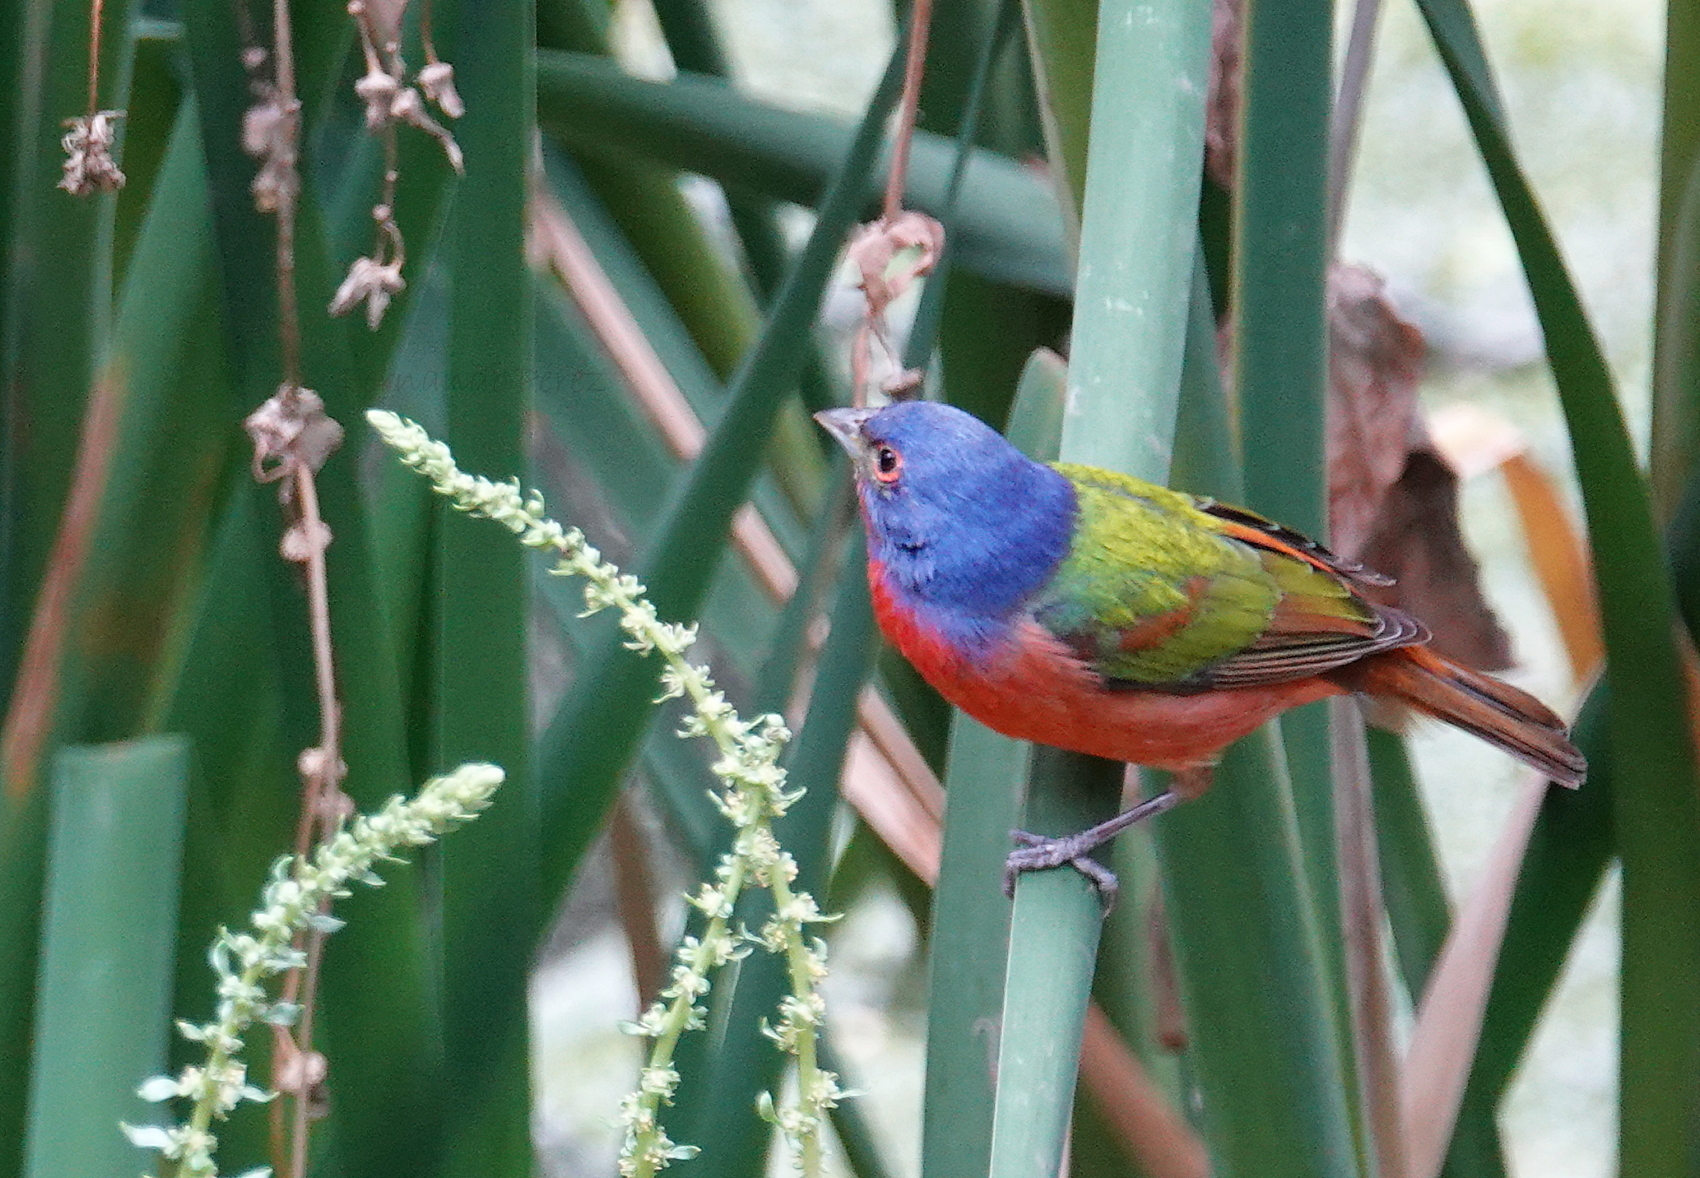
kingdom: Animalia
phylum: Chordata
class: Aves
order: Passeriformes
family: Cardinalidae
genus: Passerina
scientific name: Passerina ciris
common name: Painted bunting
